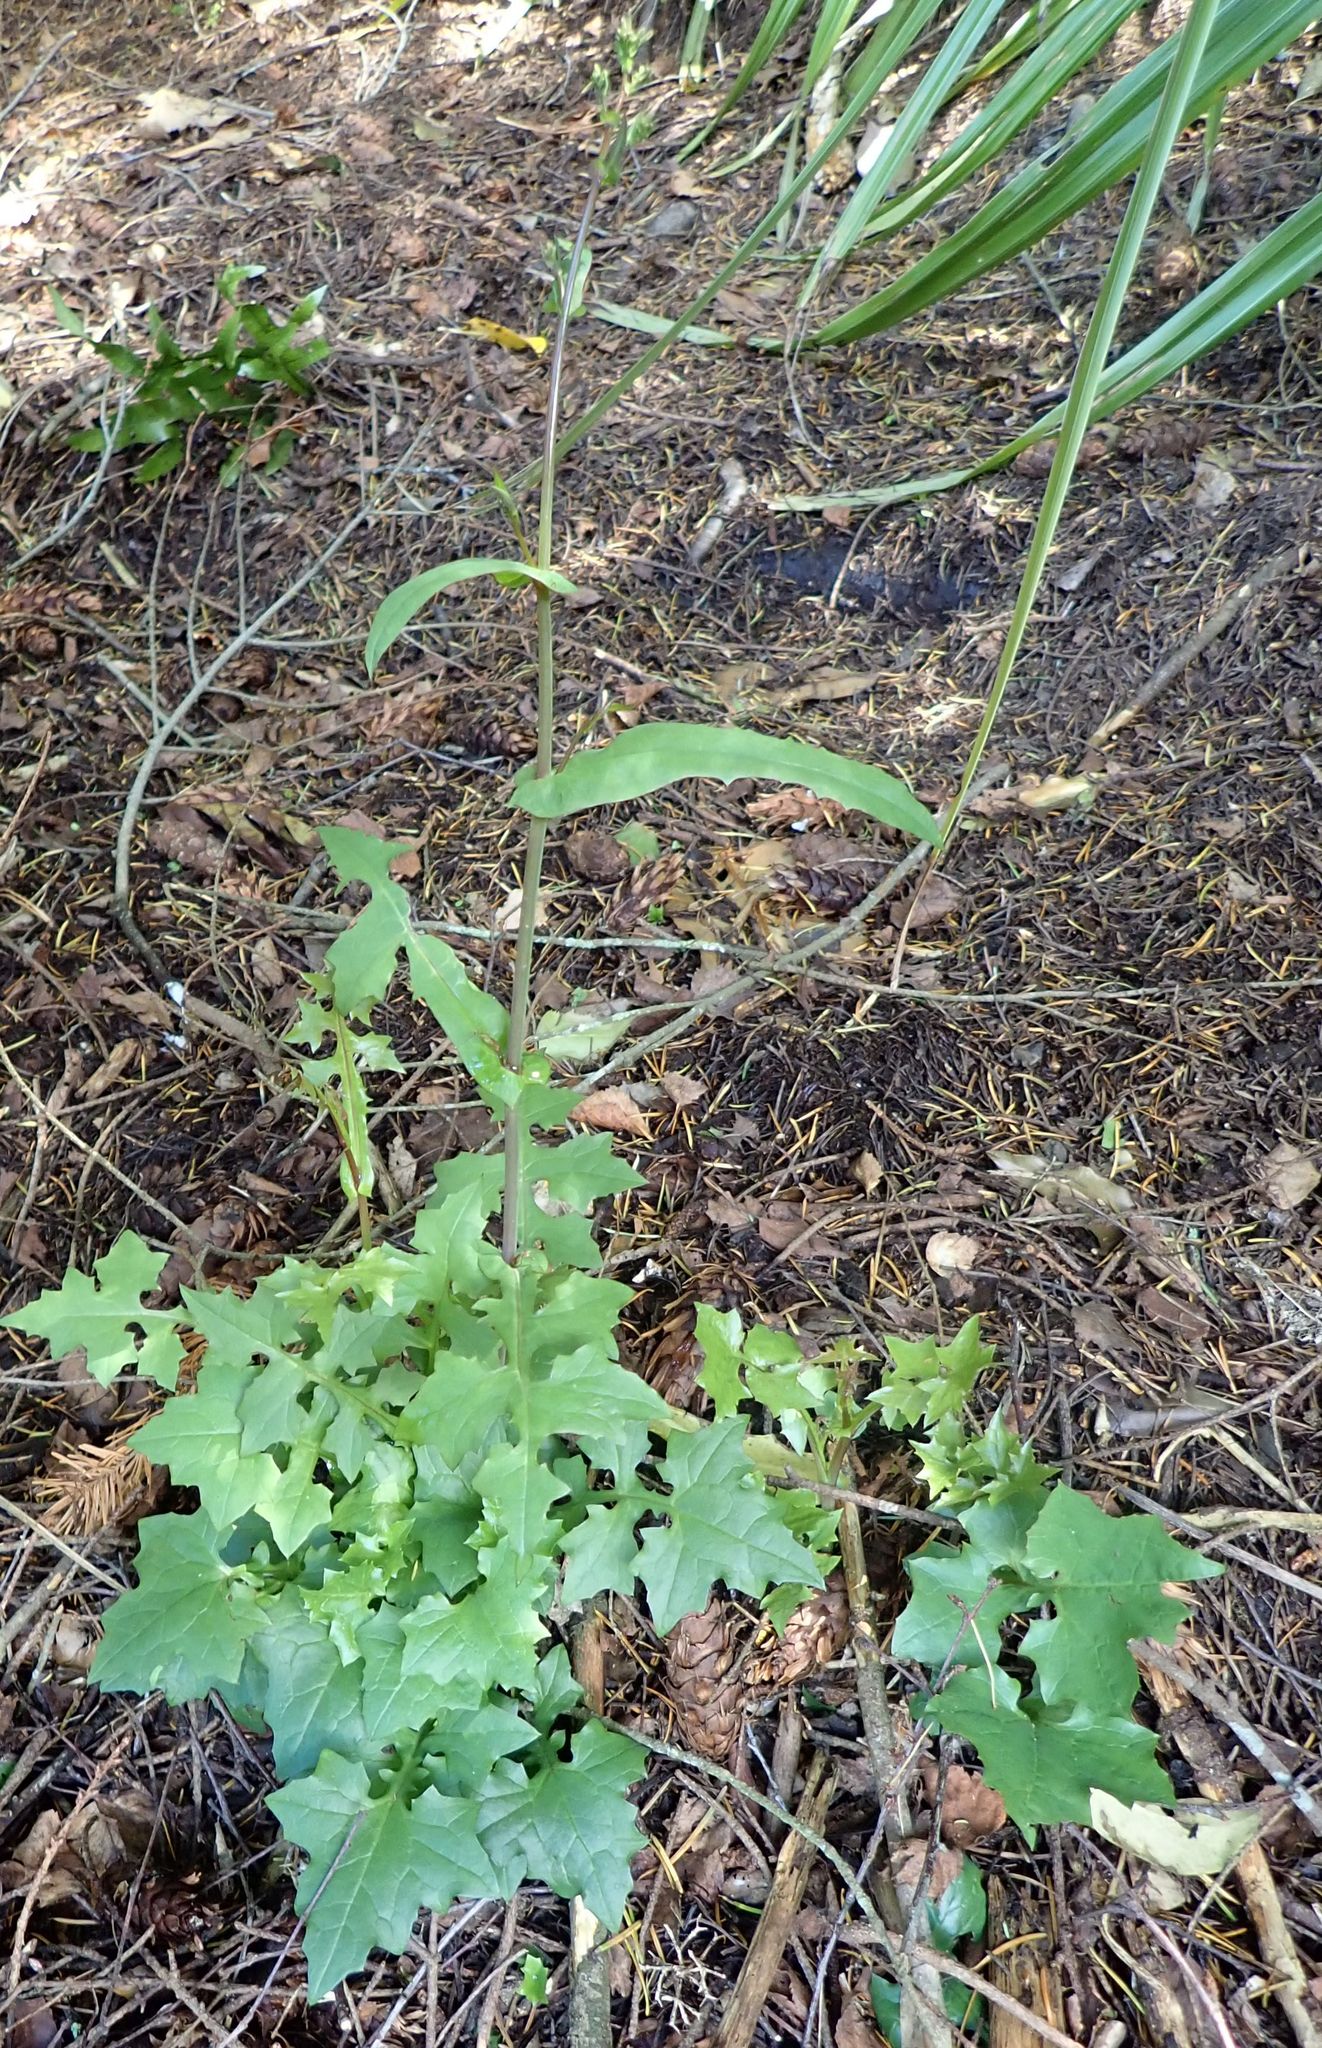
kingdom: Plantae
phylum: Tracheophyta
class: Magnoliopsida
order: Asterales
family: Asteraceae
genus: Mycelis
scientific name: Mycelis muralis
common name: Wall lettuce
